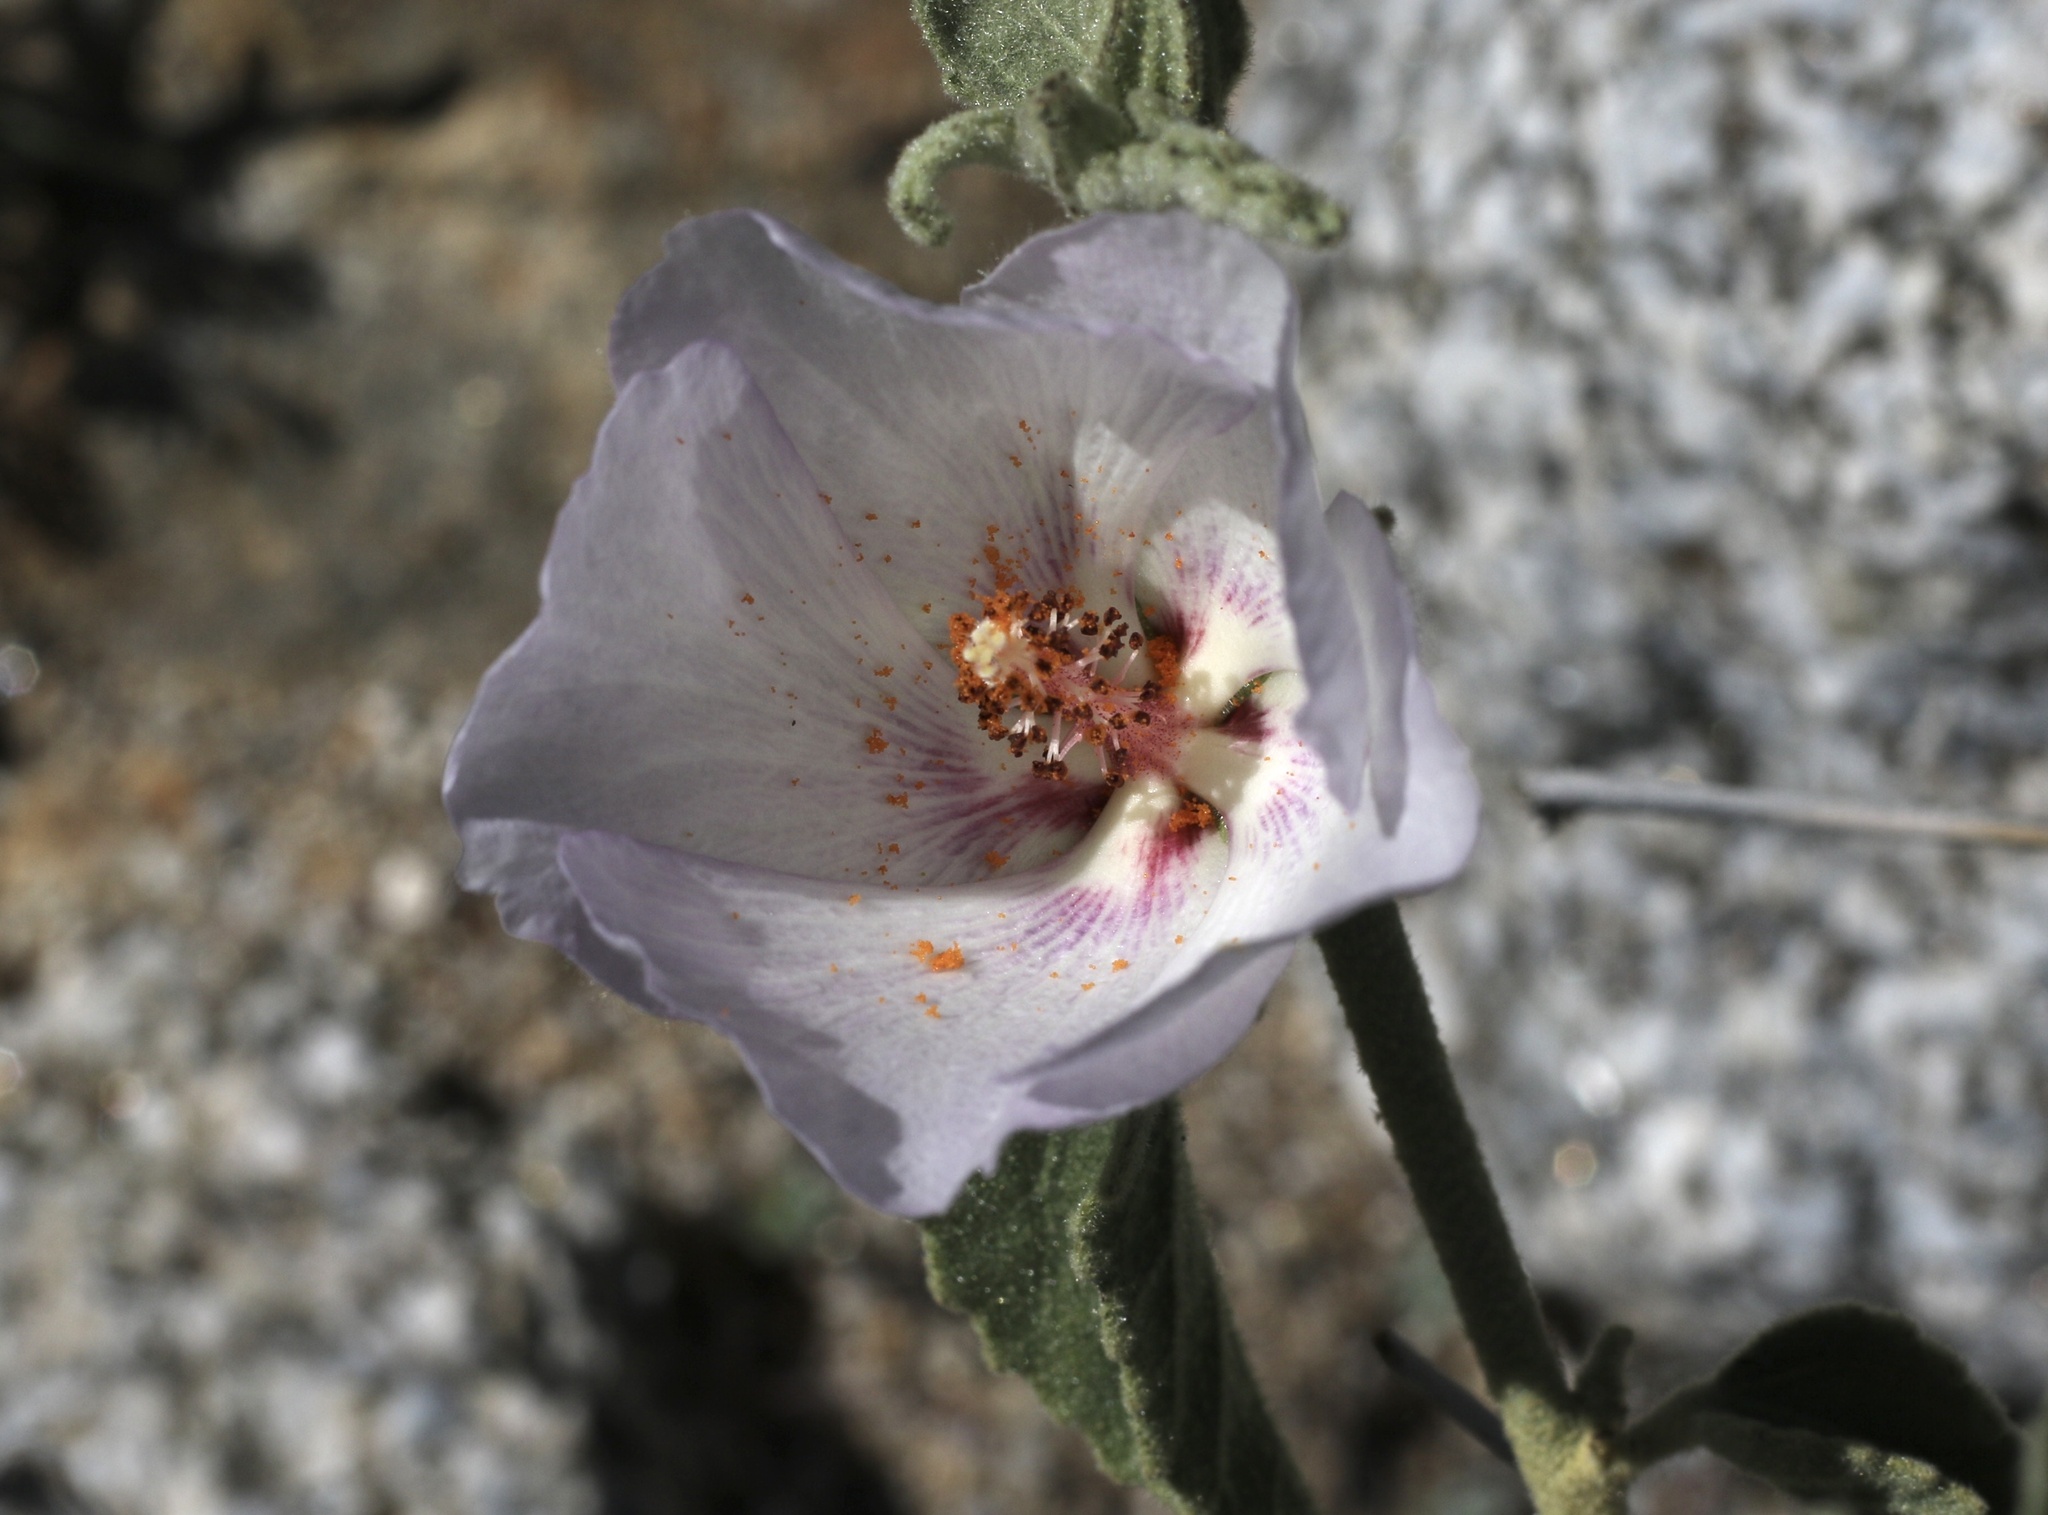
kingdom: Plantae
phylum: Tracheophyta
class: Magnoliopsida
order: Malvales
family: Malvaceae
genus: Hibiscus
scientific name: Hibiscus denudatus
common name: Paleface
